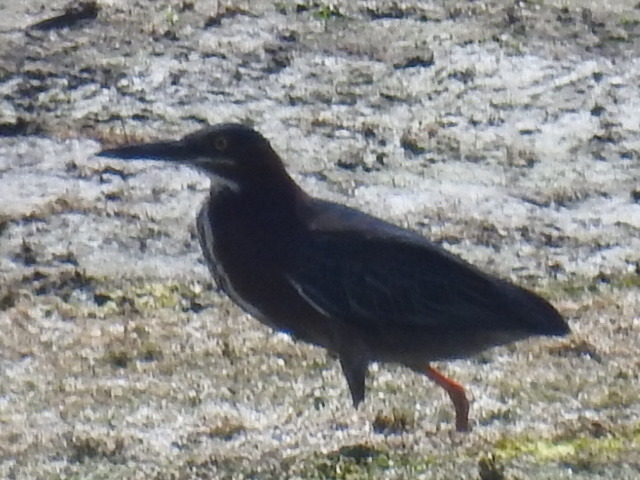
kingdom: Animalia
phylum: Chordata
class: Aves
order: Pelecaniformes
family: Ardeidae
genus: Butorides
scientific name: Butorides virescens
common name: Green heron
